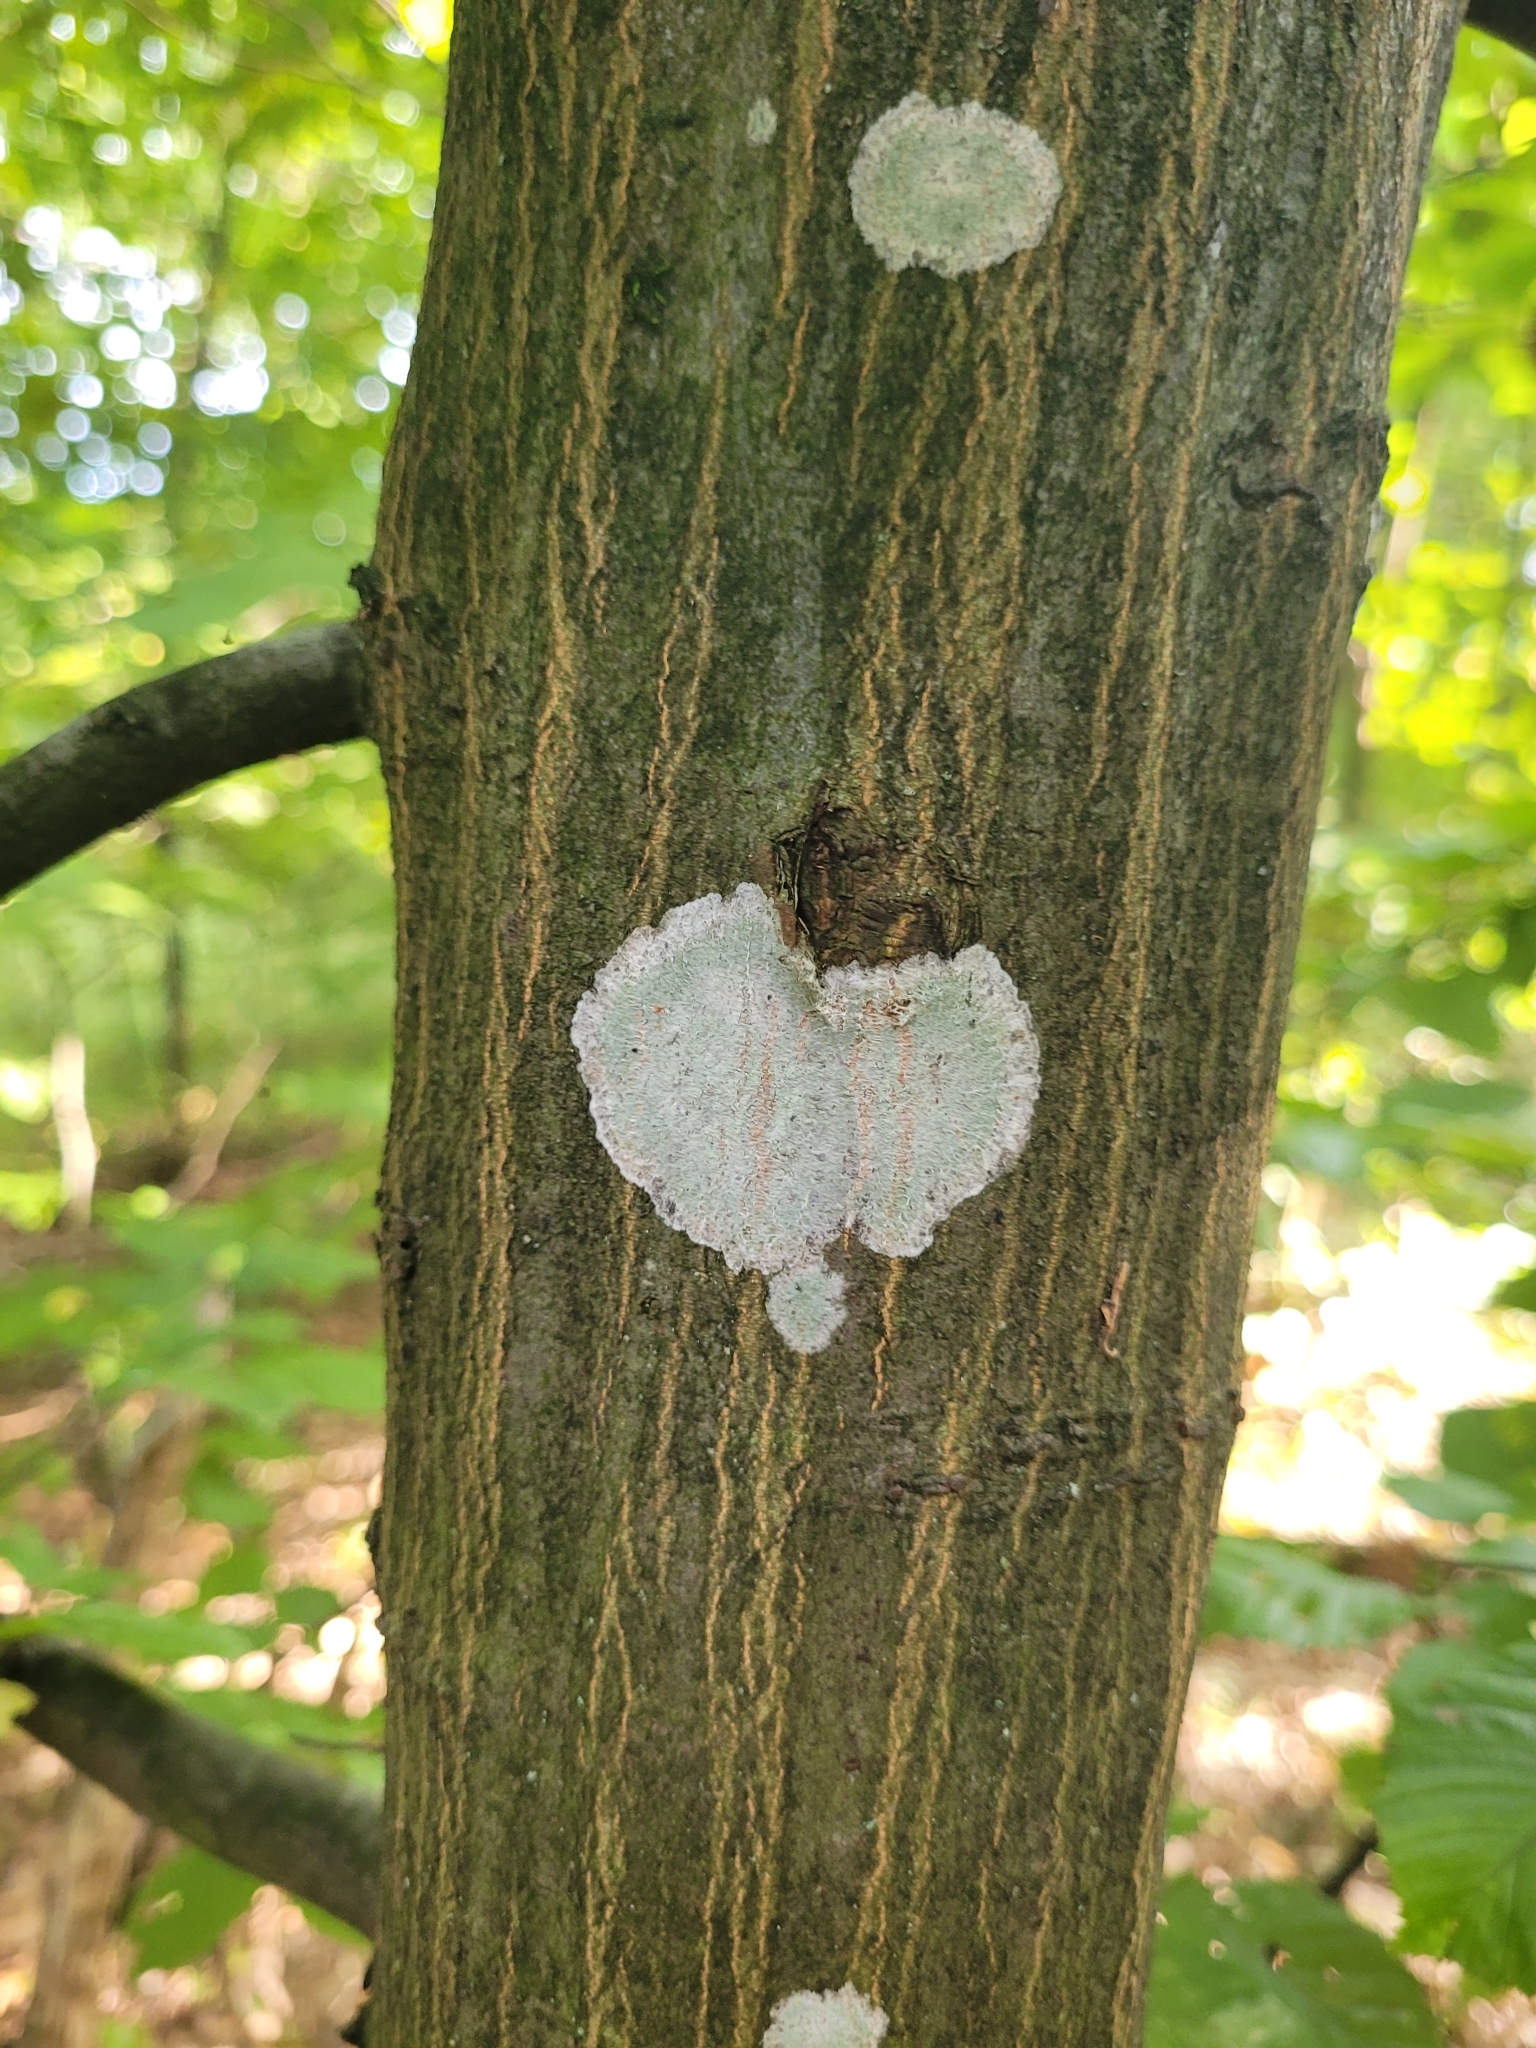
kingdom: Fungi
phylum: Ascomycota
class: Lecanoromycetes
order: Ostropales
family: Phlyctidaceae
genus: Phlyctis
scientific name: Phlyctis argena
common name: Whitewash lichen
